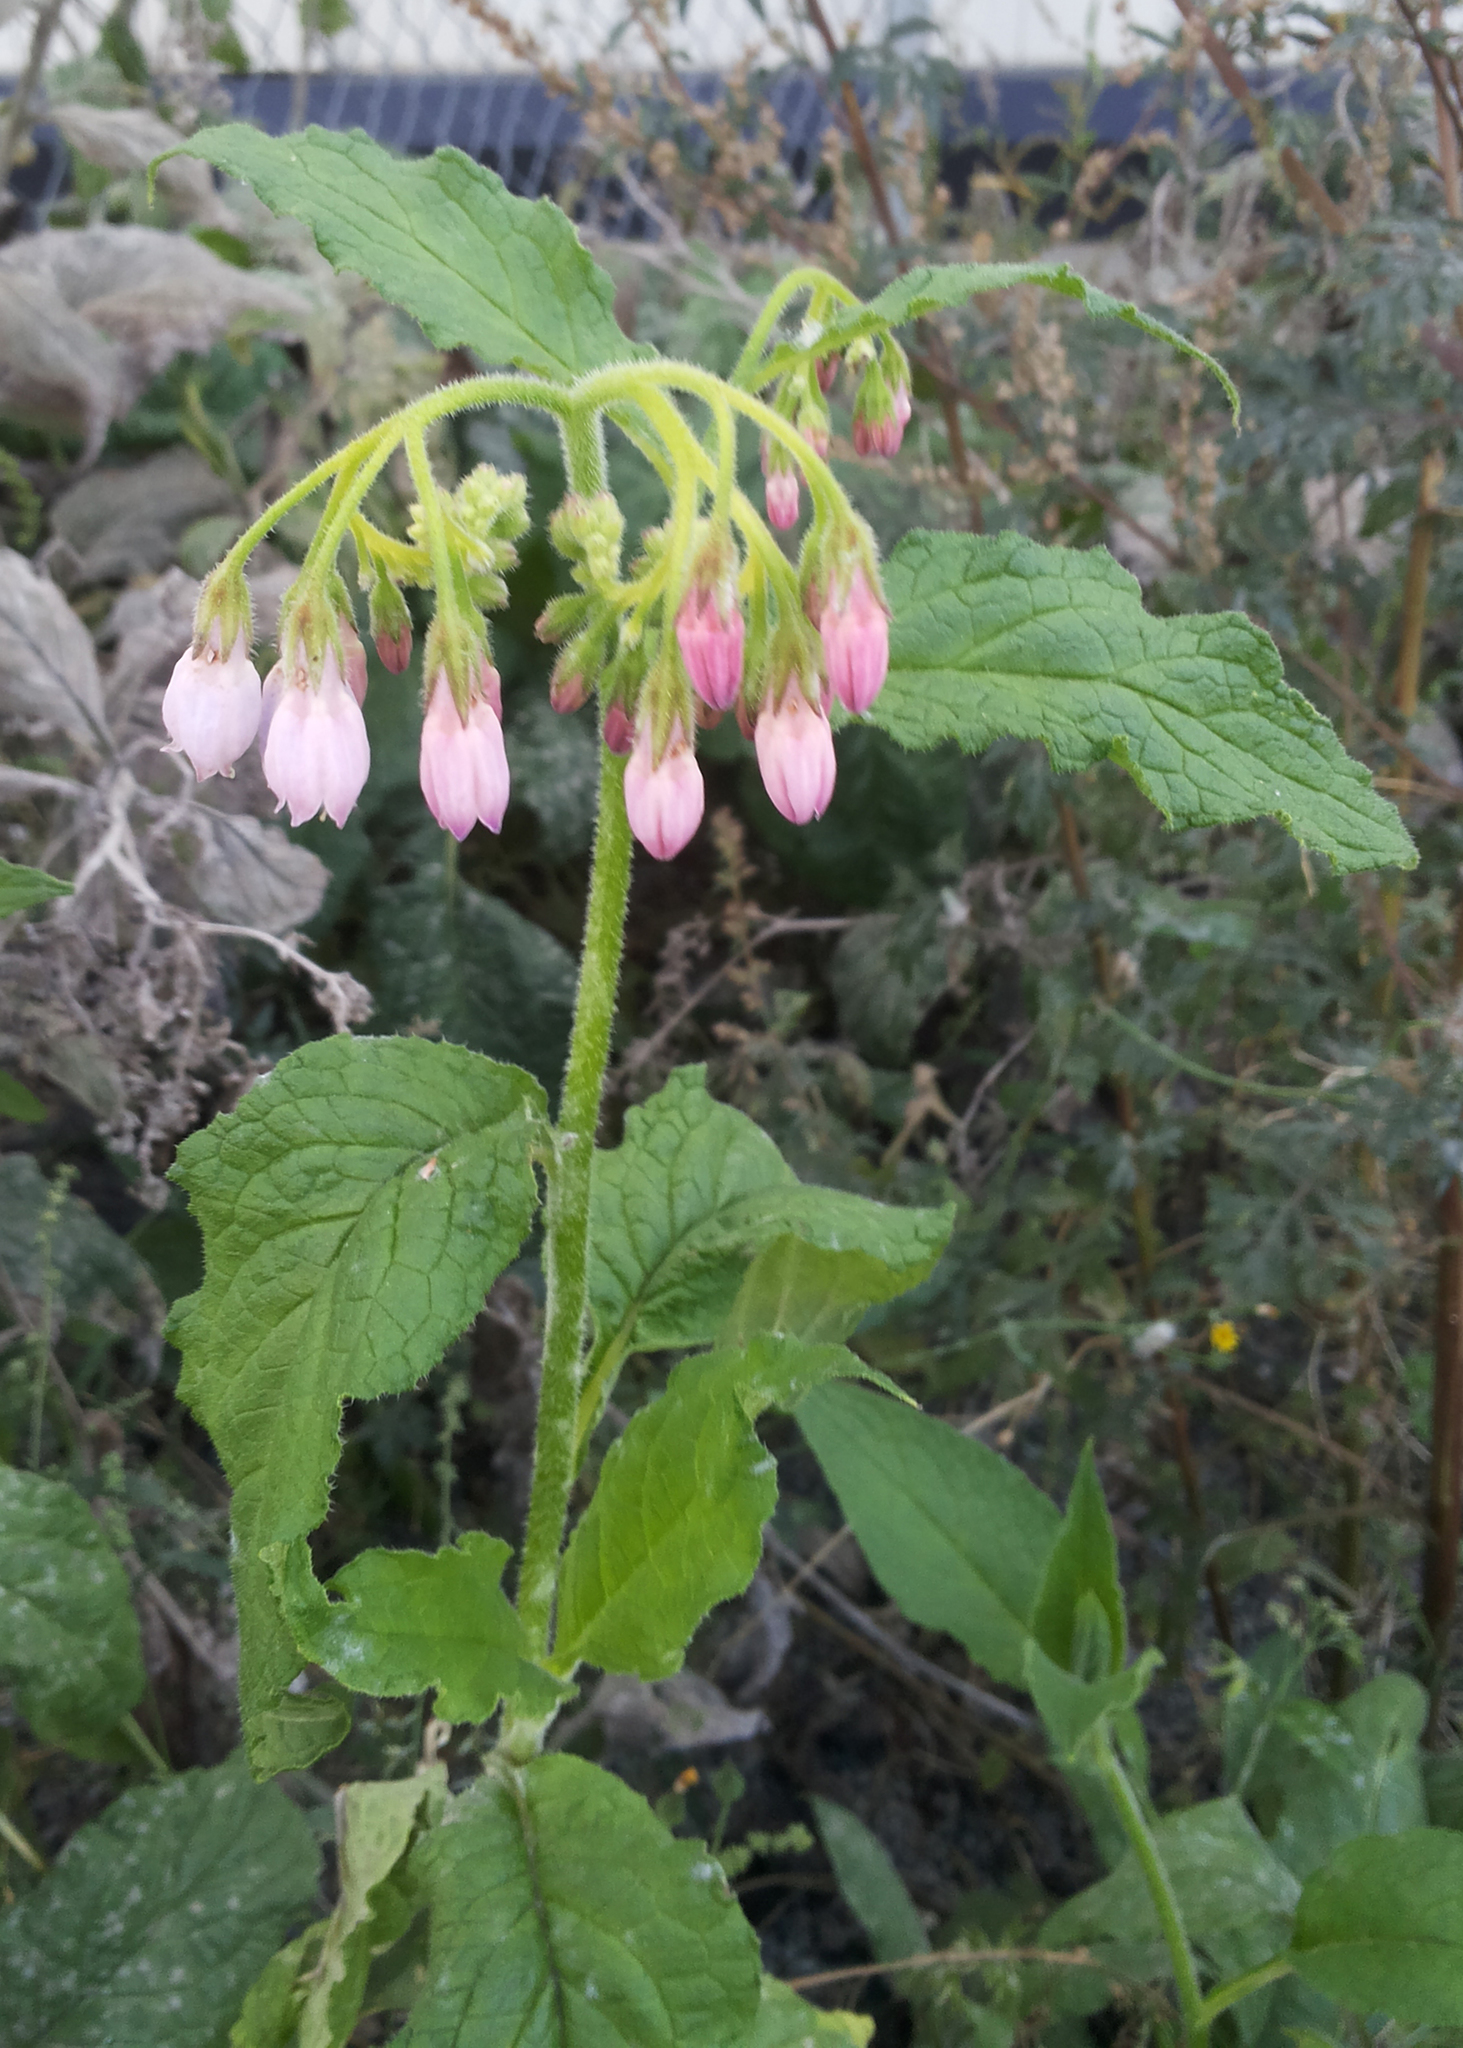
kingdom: Plantae
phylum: Tracheophyta
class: Magnoliopsida
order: Boraginales
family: Boraginaceae
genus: Symphytum
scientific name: Symphytum officinale
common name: Common comfrey
